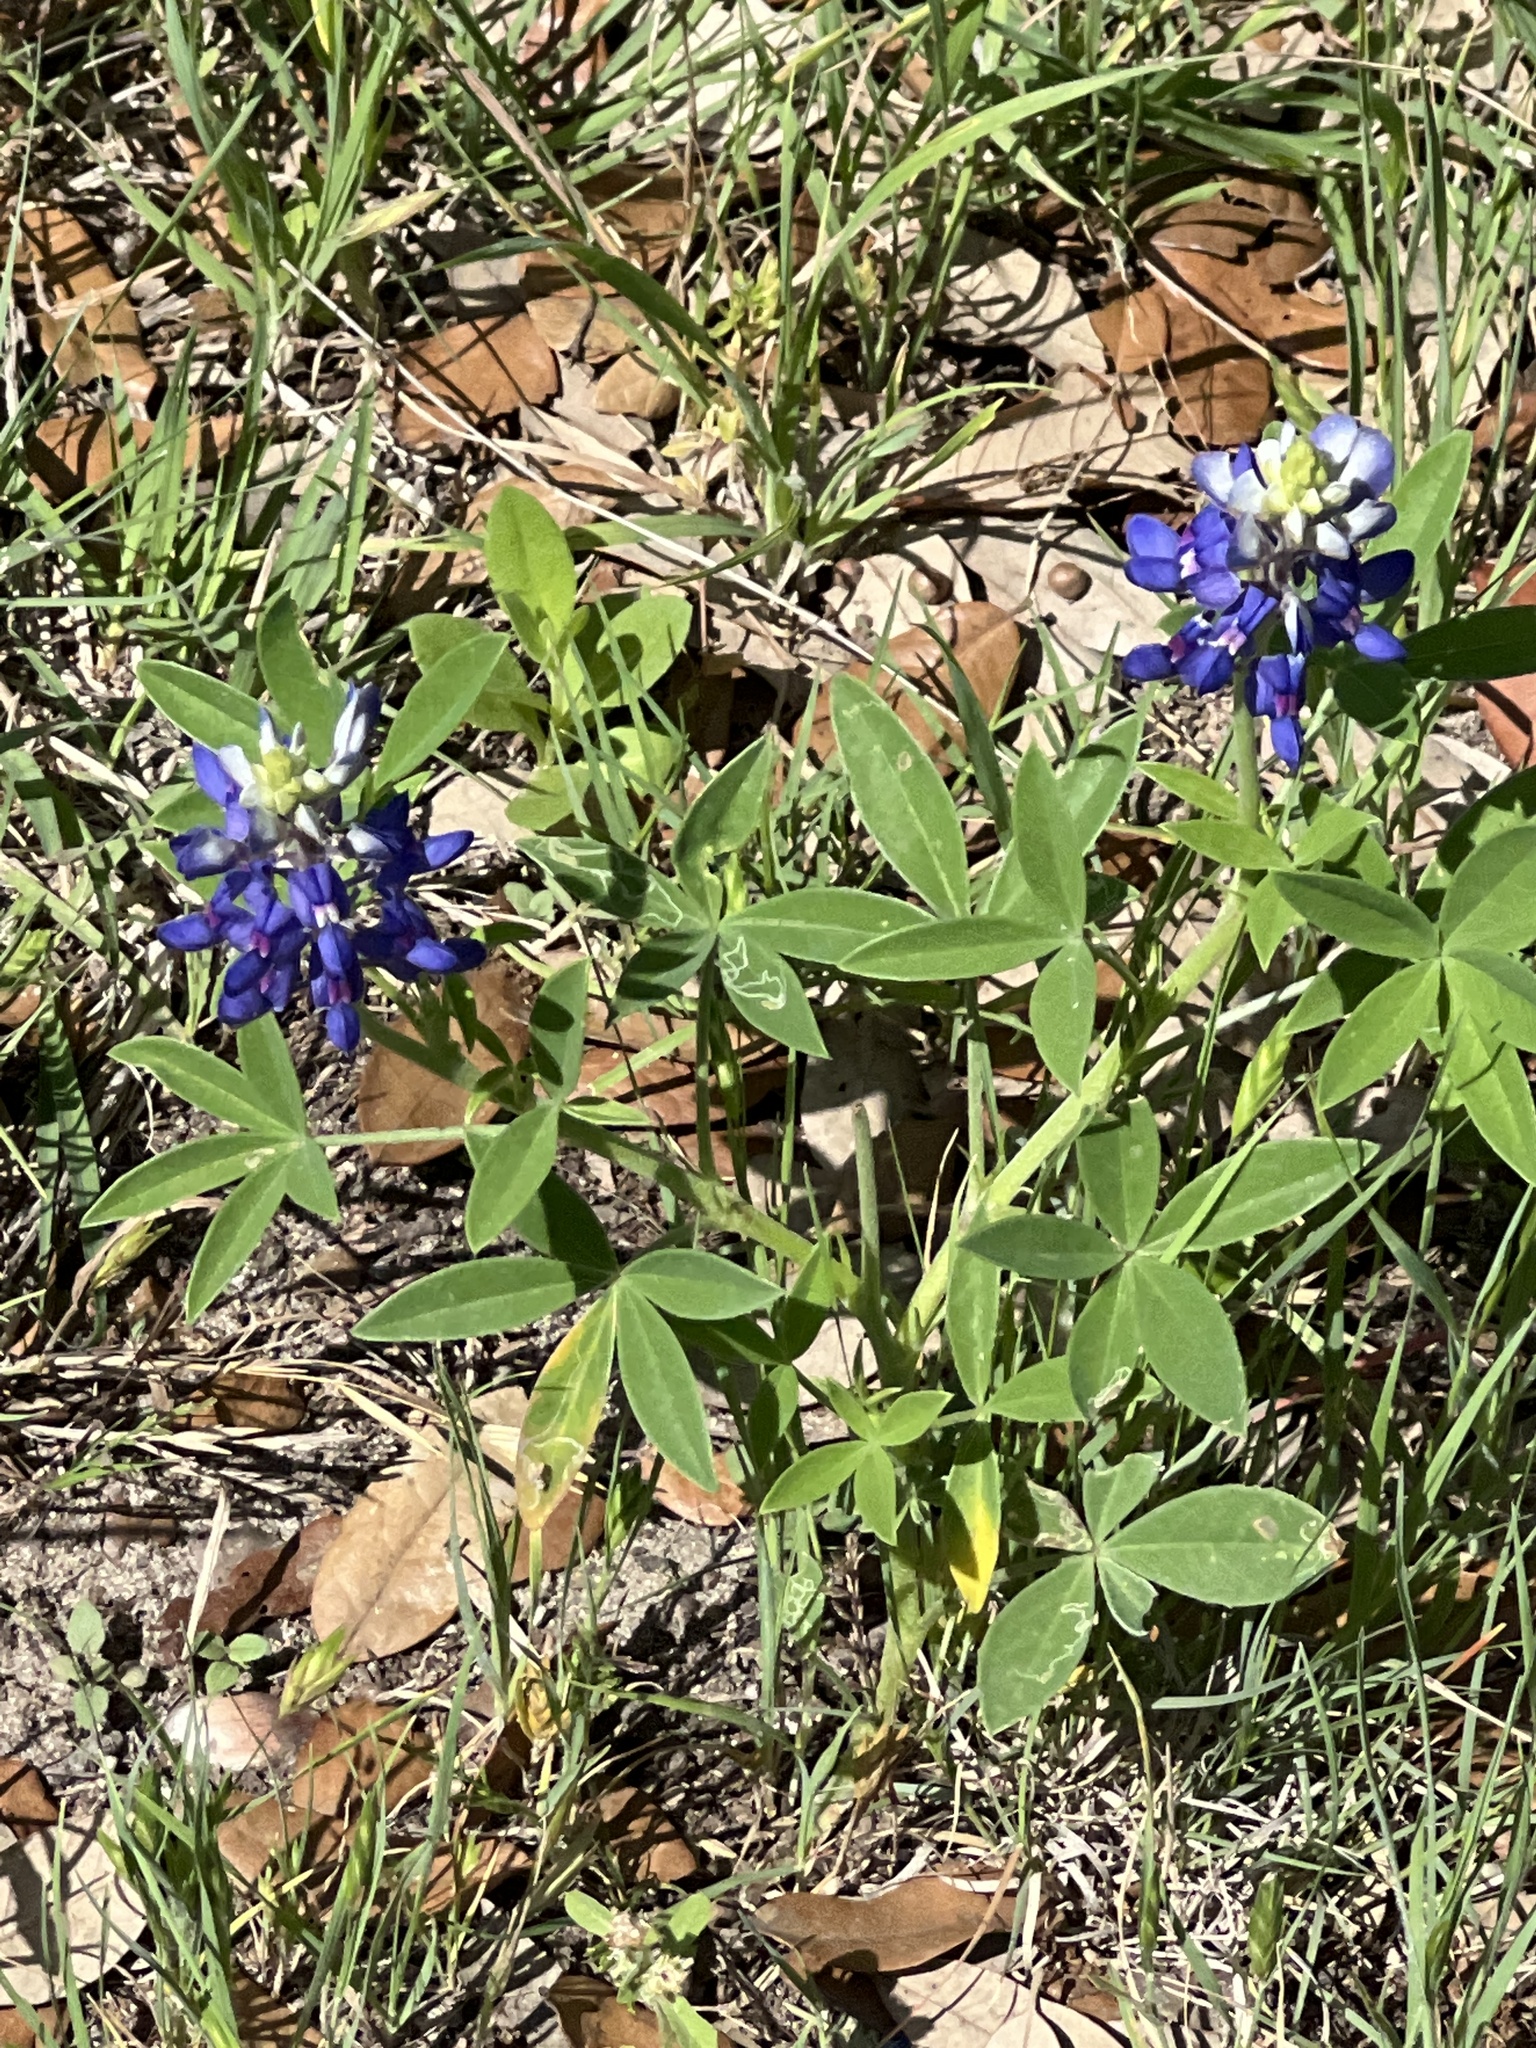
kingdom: Plantae
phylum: Tracheophyta
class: Magnoliopsida
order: Fabales
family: Fabaceae
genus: Lupinus
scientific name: Lupinus texensis
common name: Texas bluebonnet
